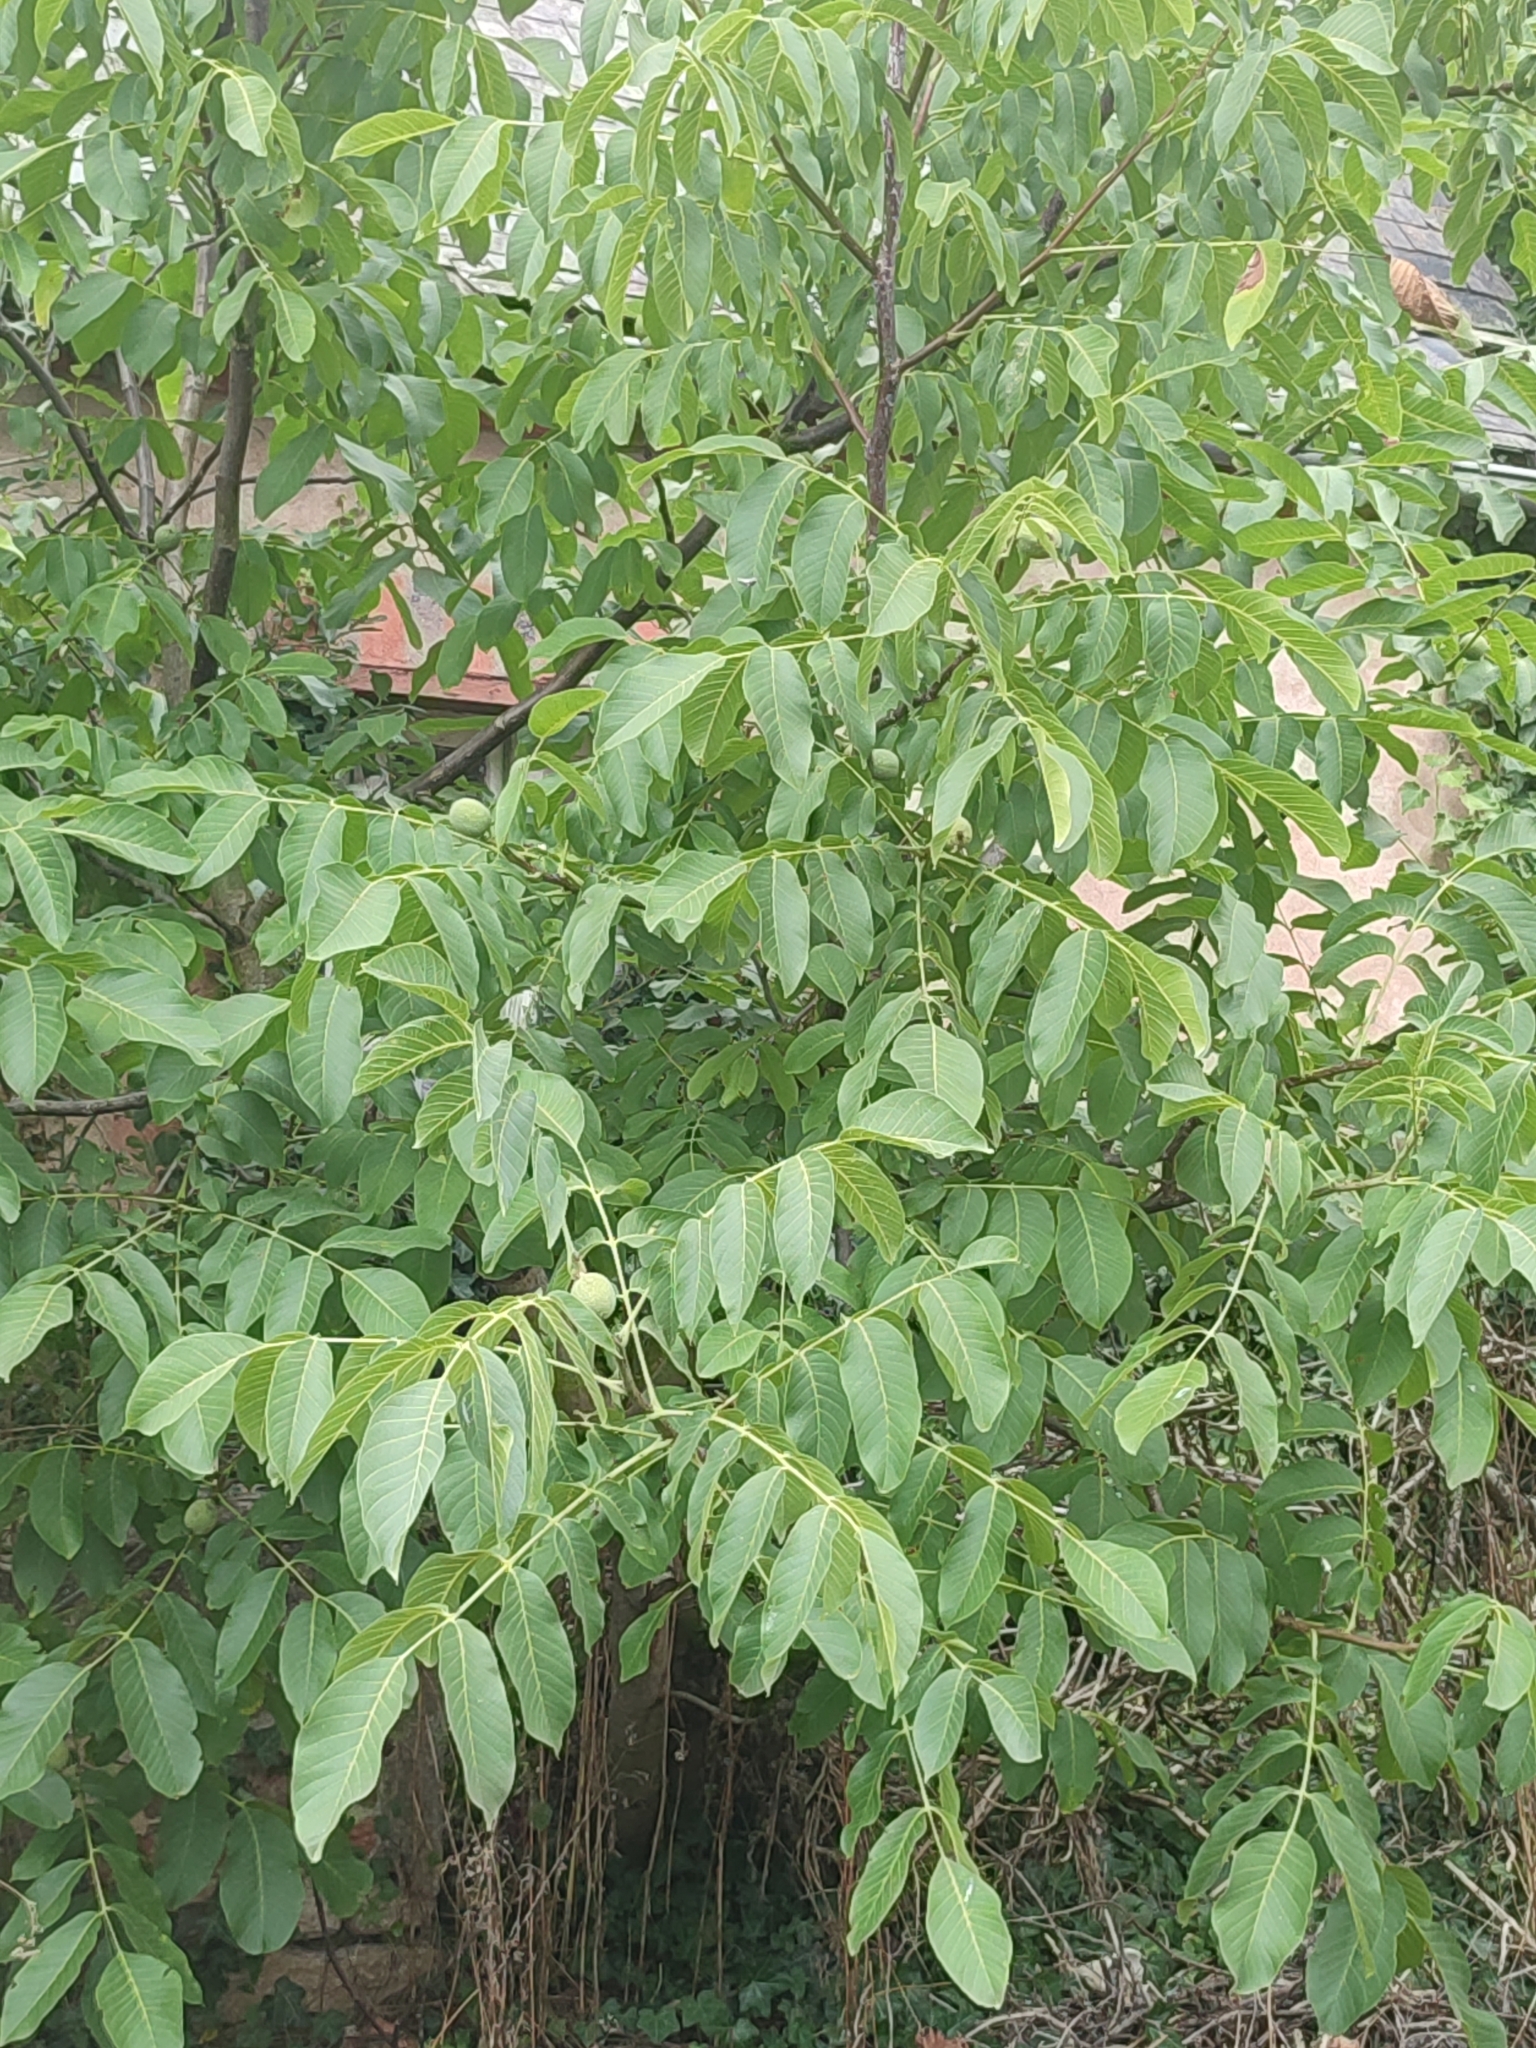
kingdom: Plantae
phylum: Tracheophyta
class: Magnoliopsida
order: Fagales
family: Juglandaceae
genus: Juglans
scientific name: Juglans regia
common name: Walnut
